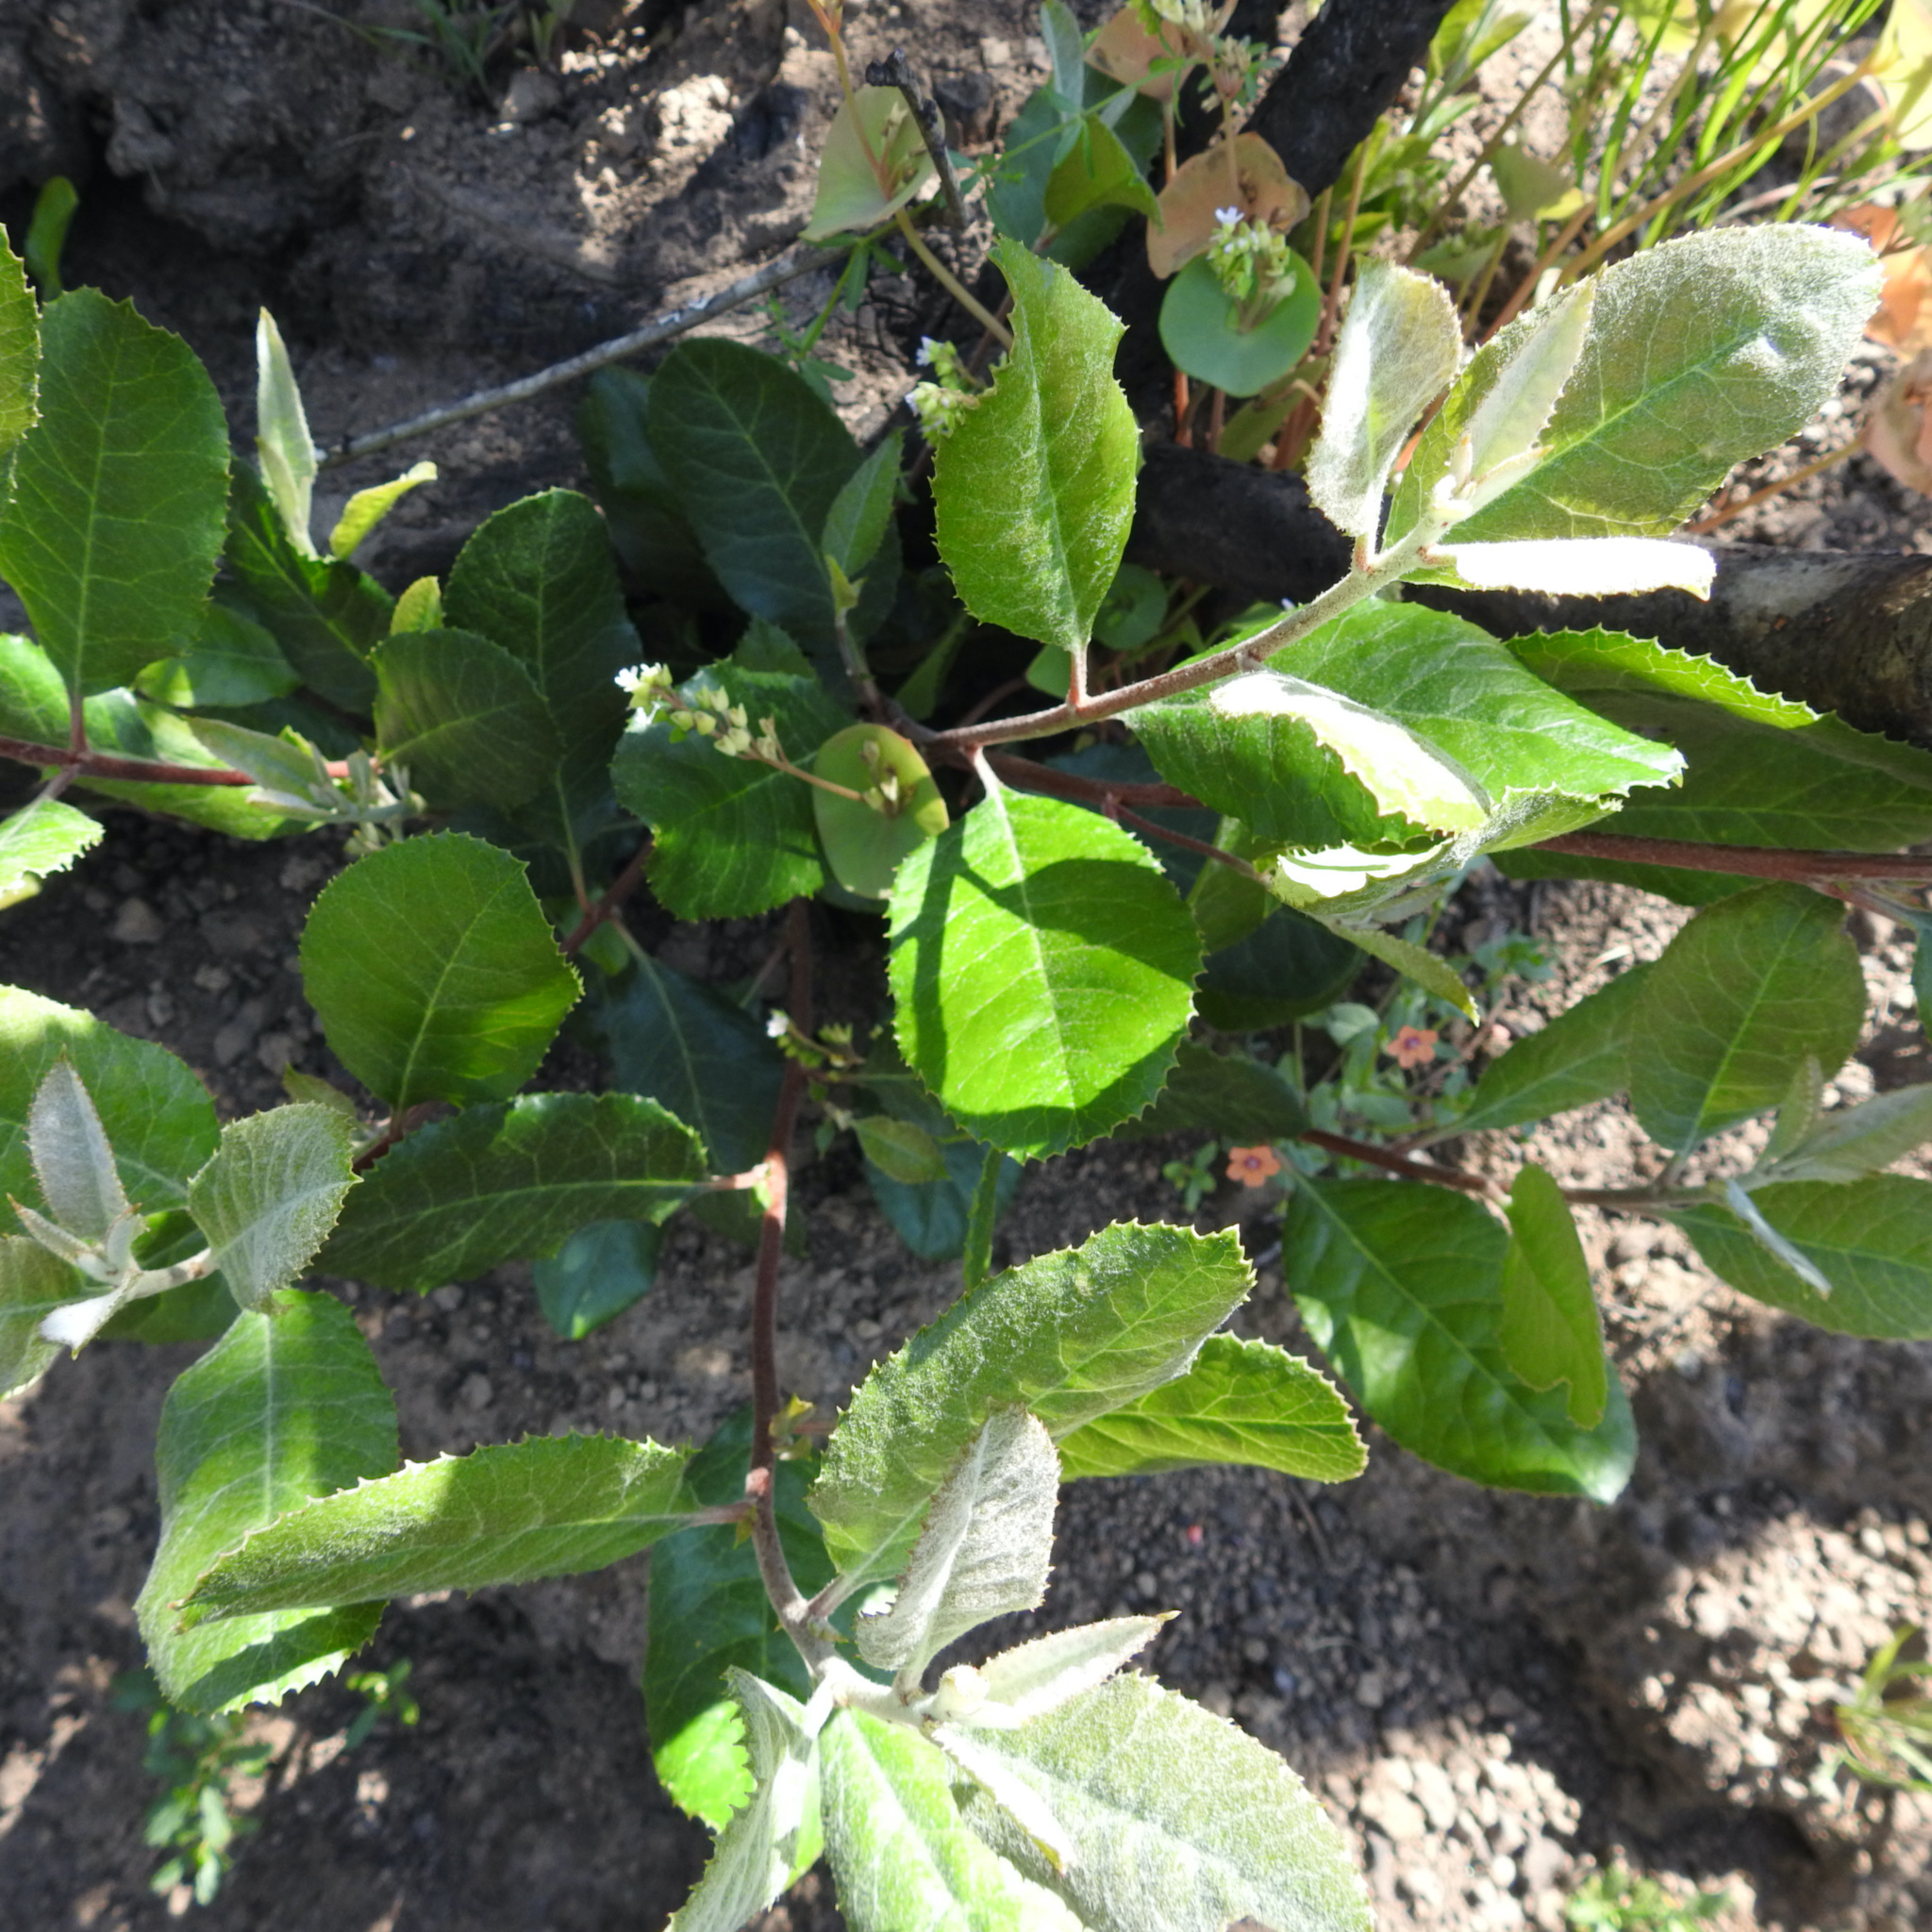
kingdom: Plantae
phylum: Tracheophyta
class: Magnoliopsida
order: Rosales
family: Rosaceae
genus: Heteromeles
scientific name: Heteromeles arbutifolia
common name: California-holly
